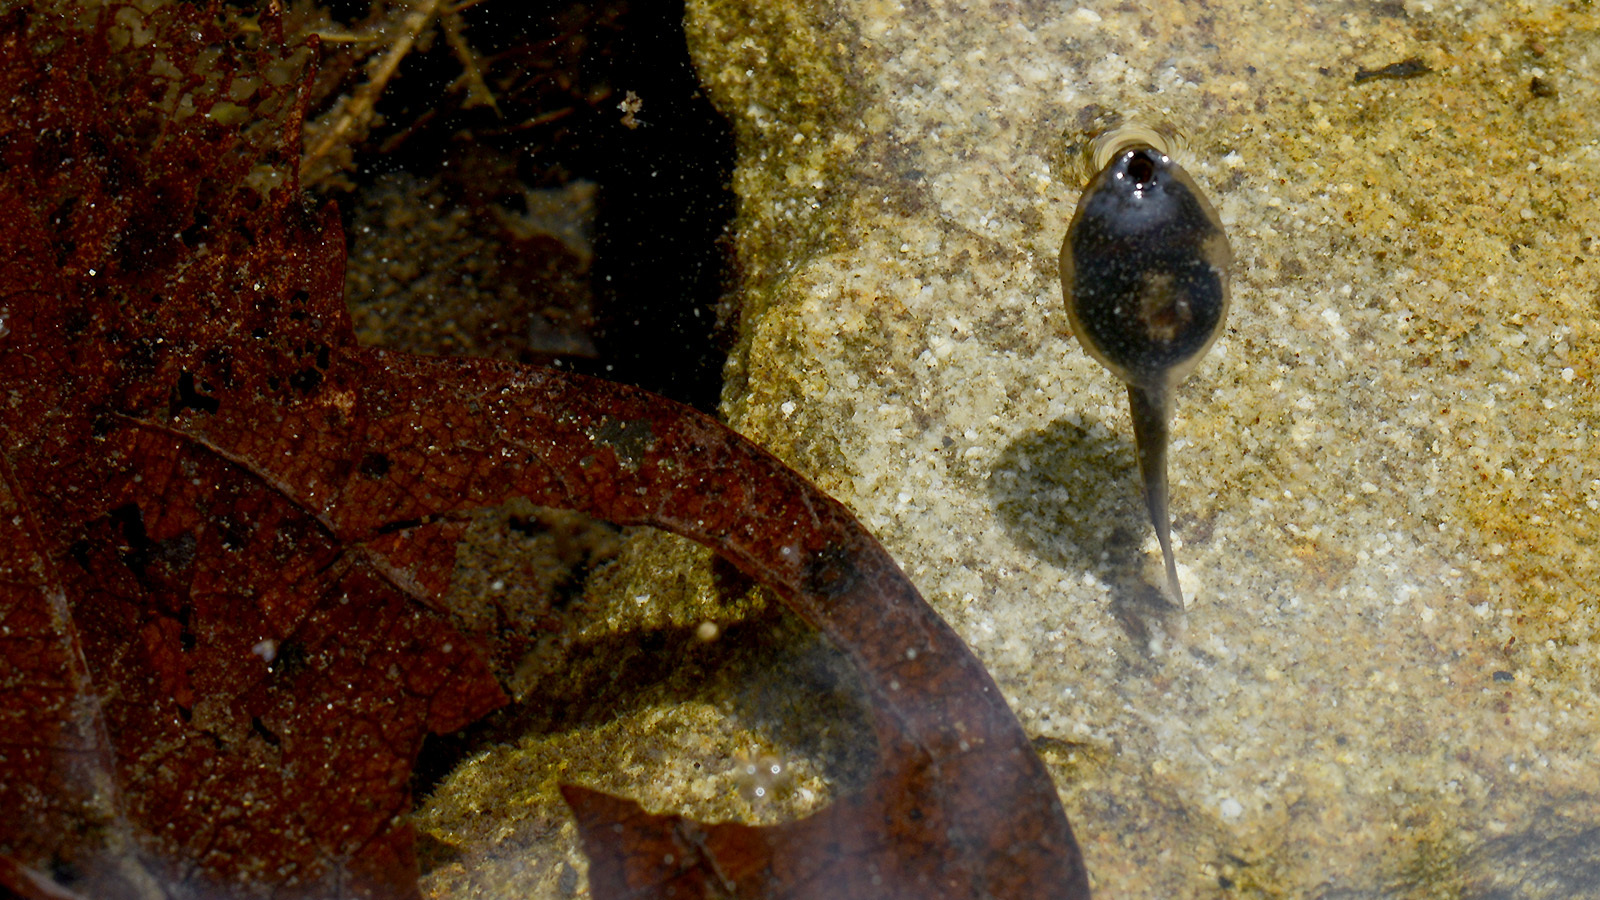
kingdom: Animalia
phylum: Chordata
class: Amphibia
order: Anura
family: Ranidae
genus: Rana
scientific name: Rana huanrenensis
